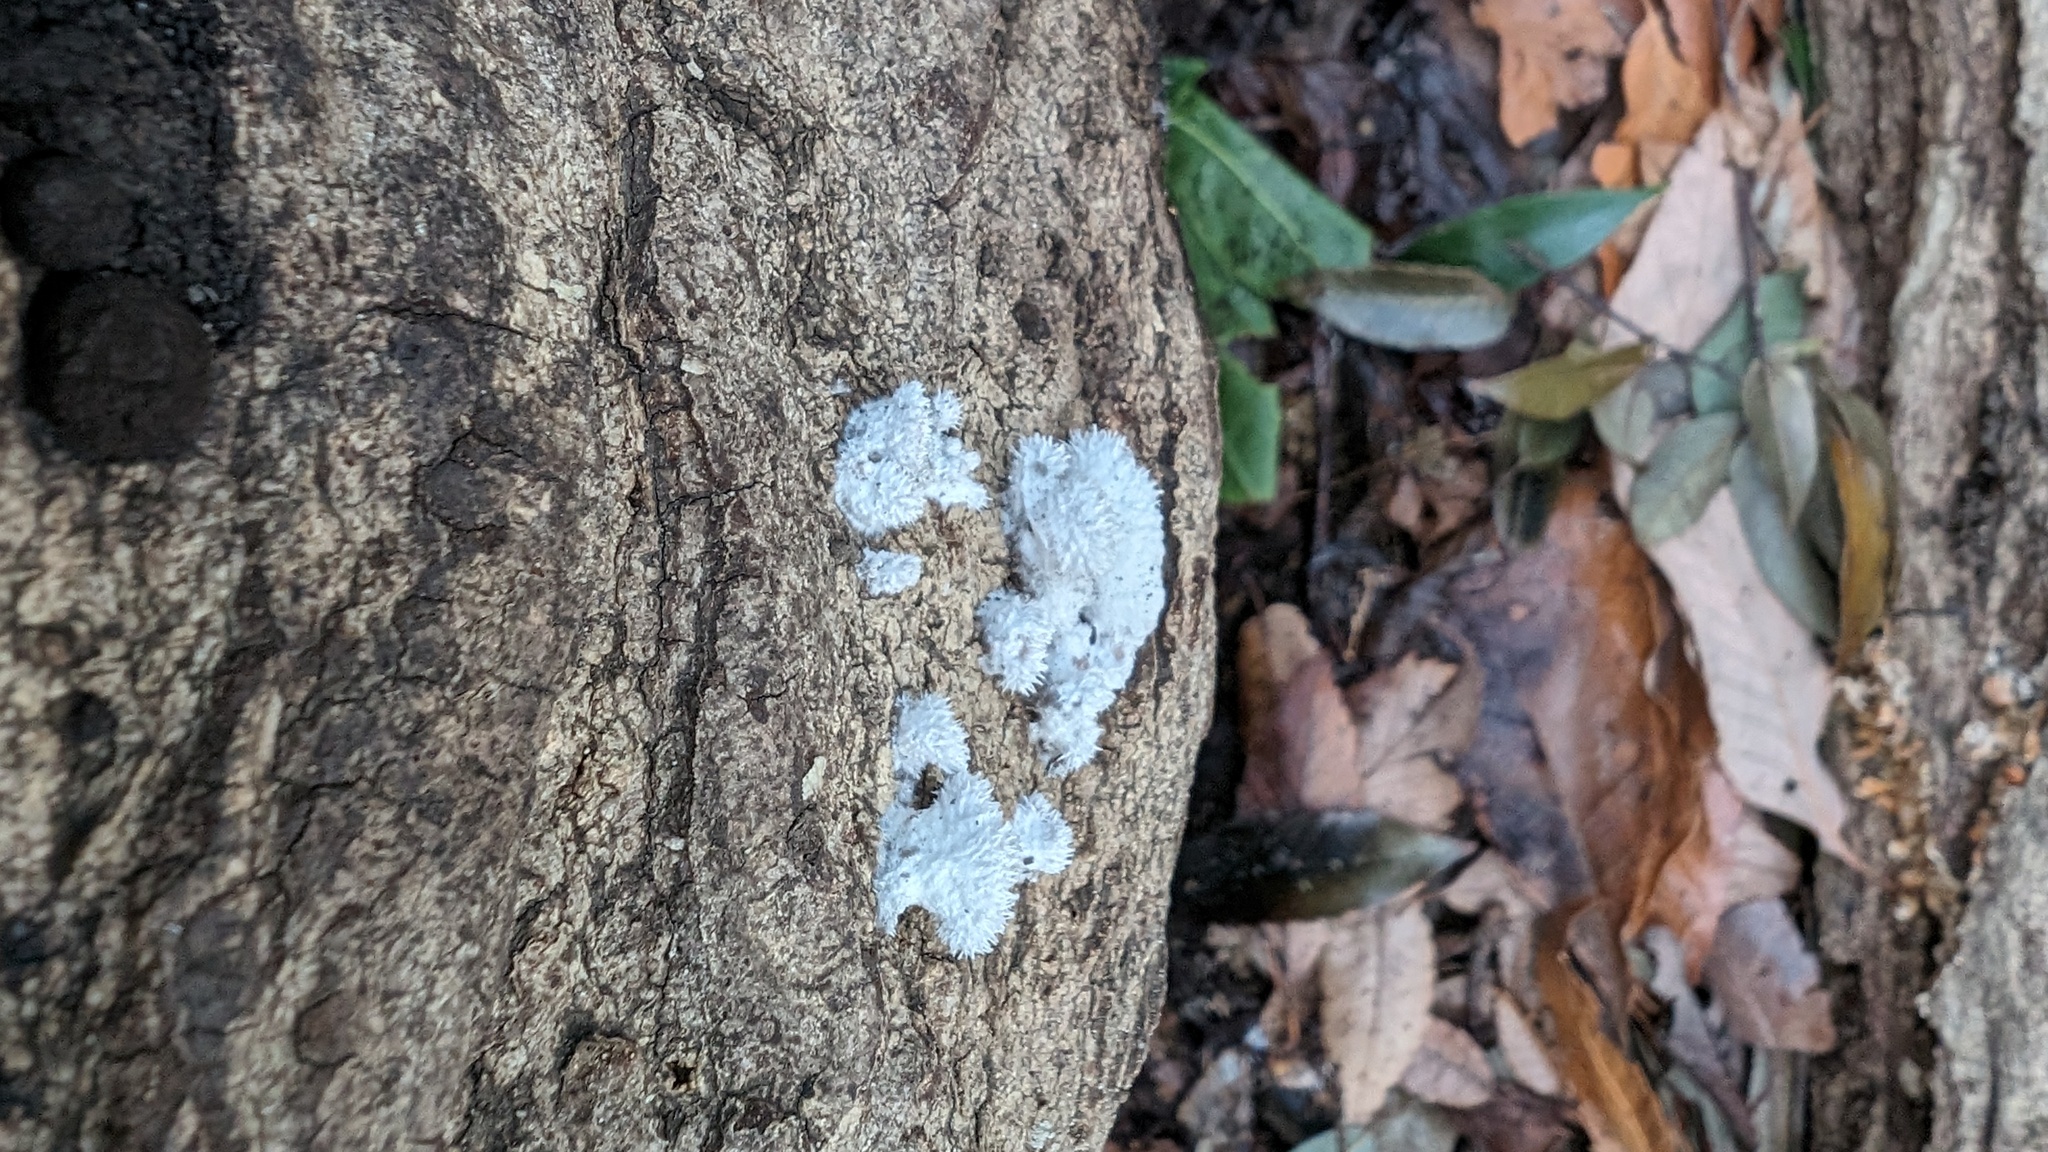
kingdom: Fungi
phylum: Basidiomycota
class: Agaricomycetes
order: Agaricales
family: Schizophyllaceae
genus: Schizophyllum
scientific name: Schizophyllum commune
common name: Common porecrust
